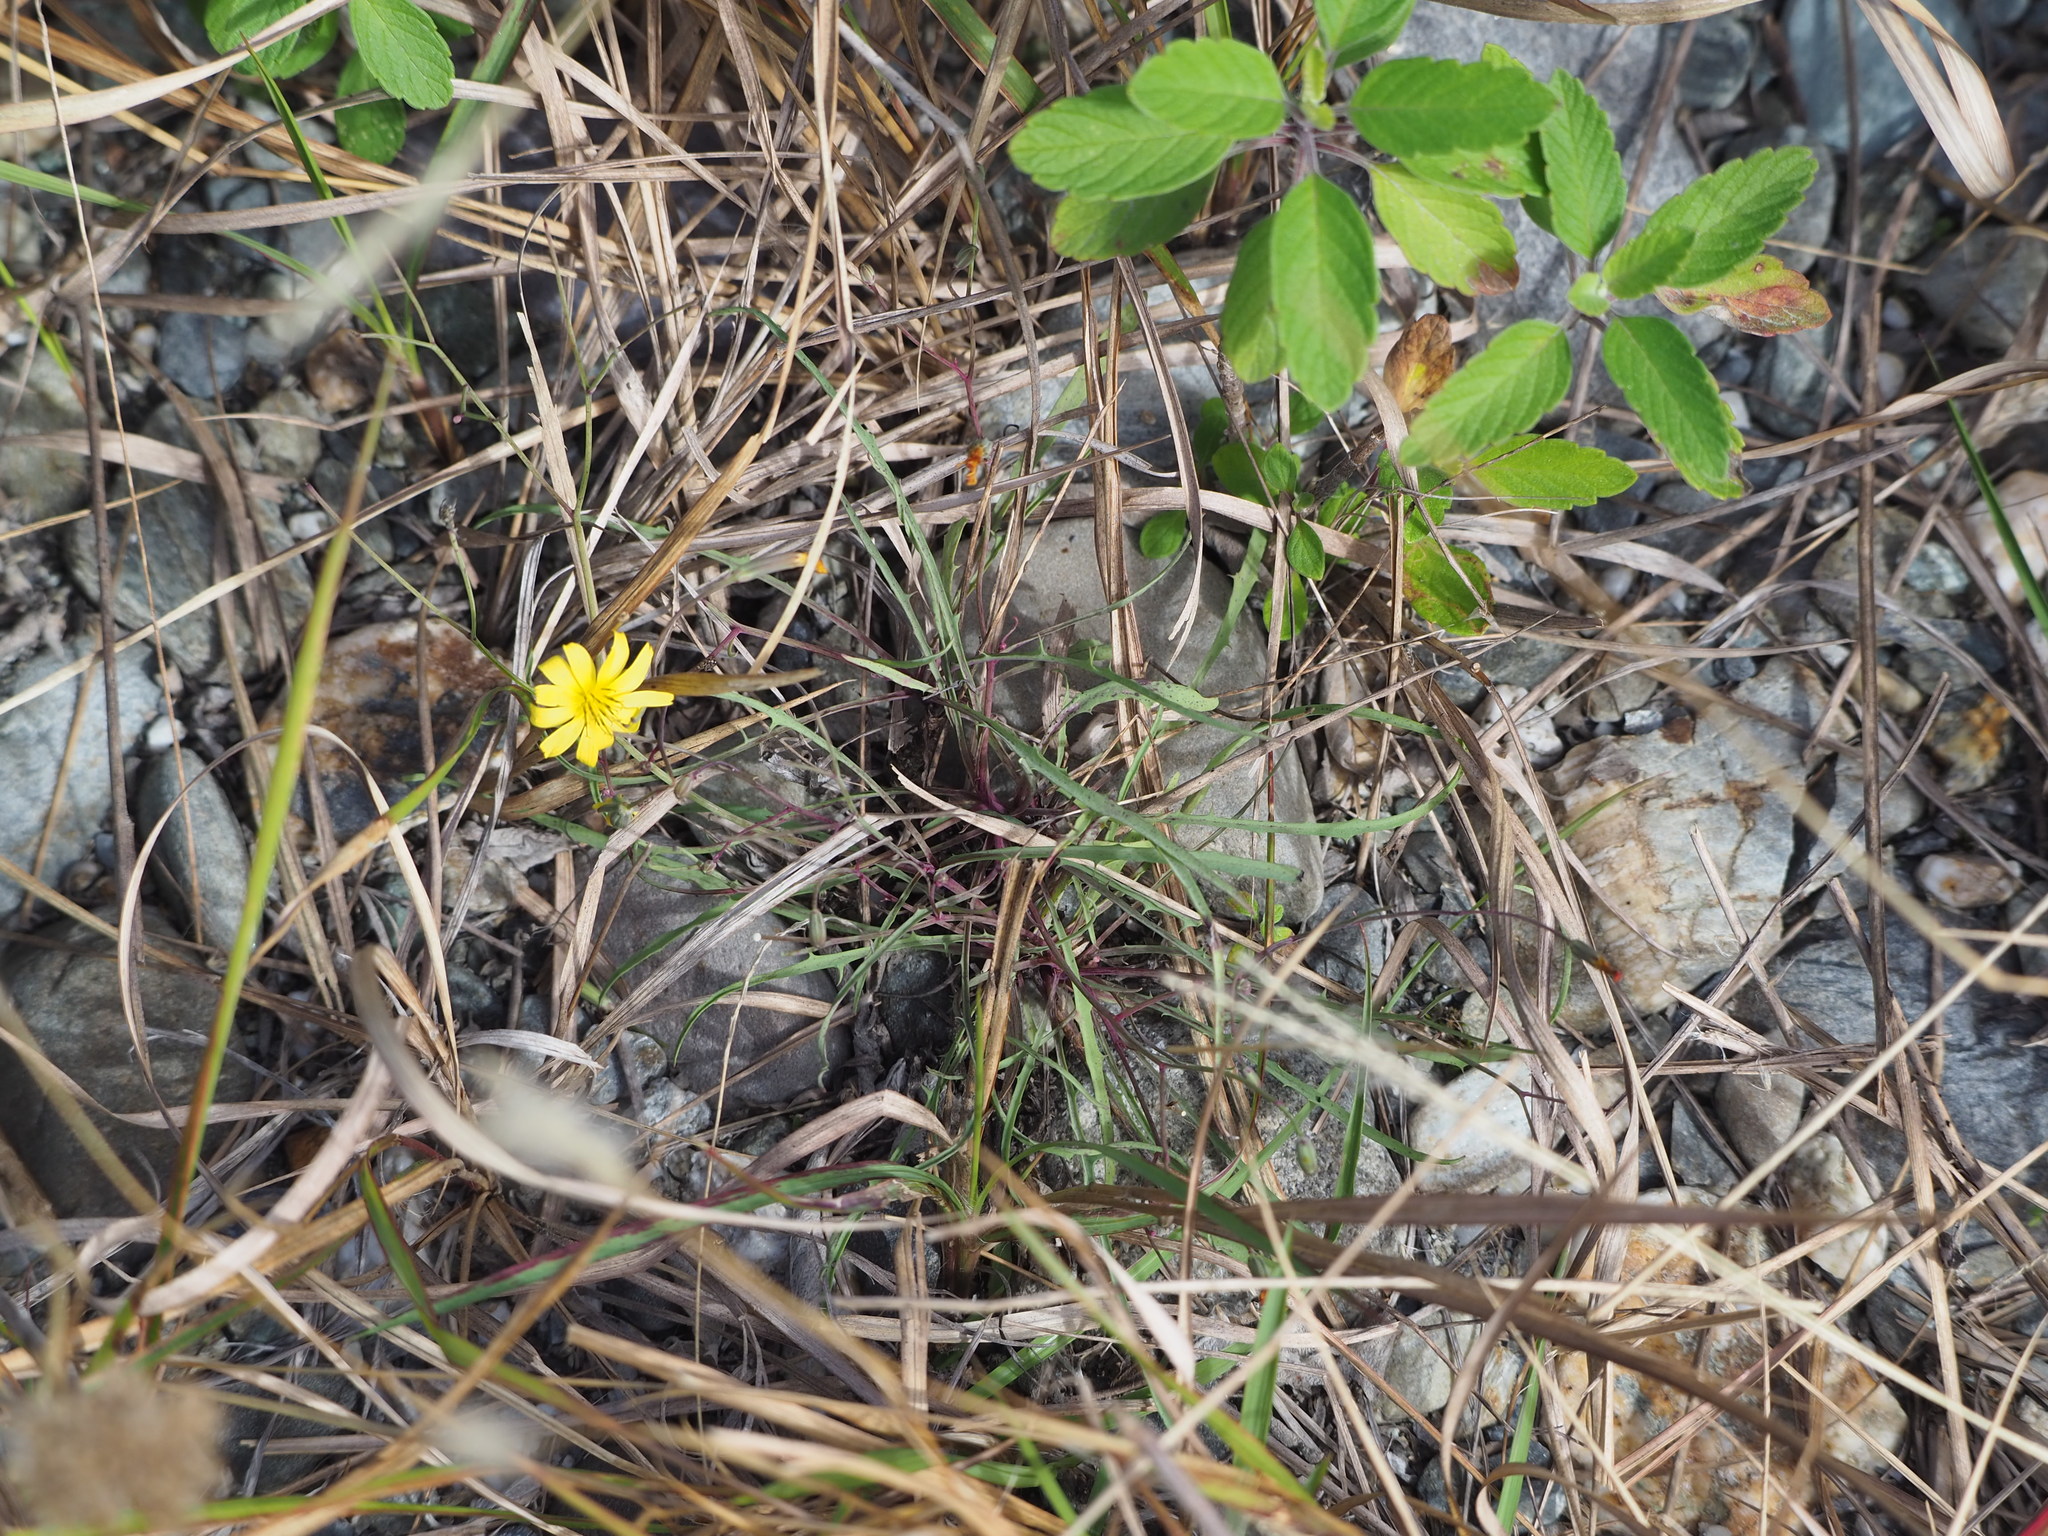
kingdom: Plantae
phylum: Tracheophyta
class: Magnoliopsida
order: Asterales
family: Asteraceae
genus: Ixeris
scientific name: Ixeris tamagawaensis
